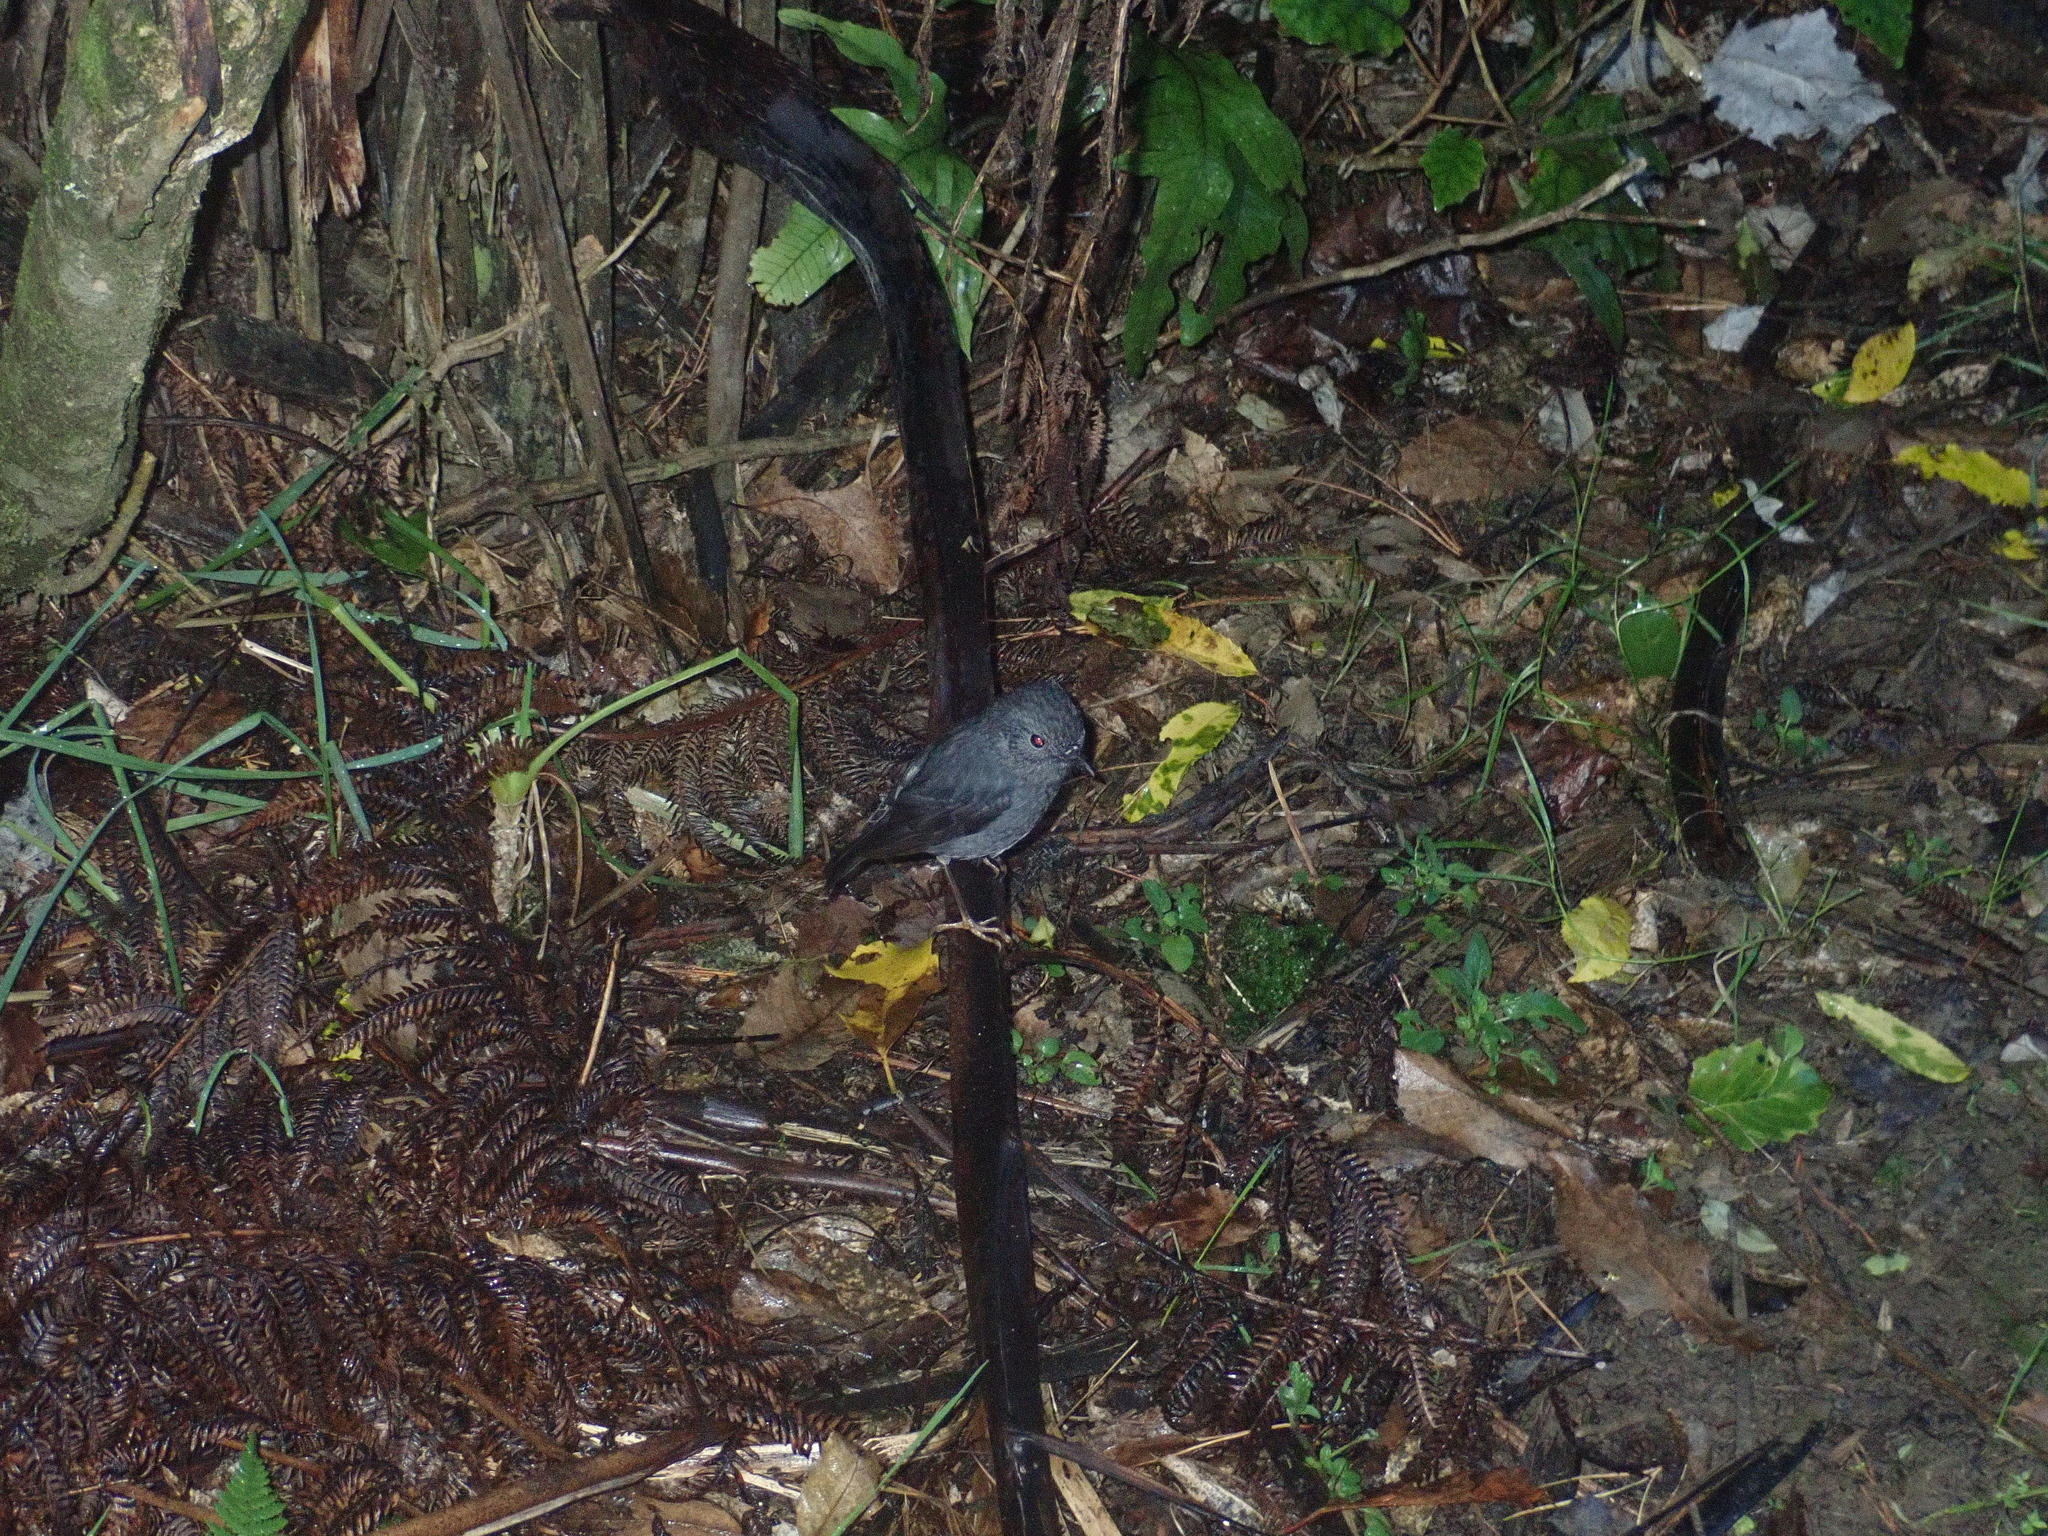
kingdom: Animalia
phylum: Chordata
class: Aves
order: Passeriformes
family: Petroicidae
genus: Petroica
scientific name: Petroica australis
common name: New zealand robin
